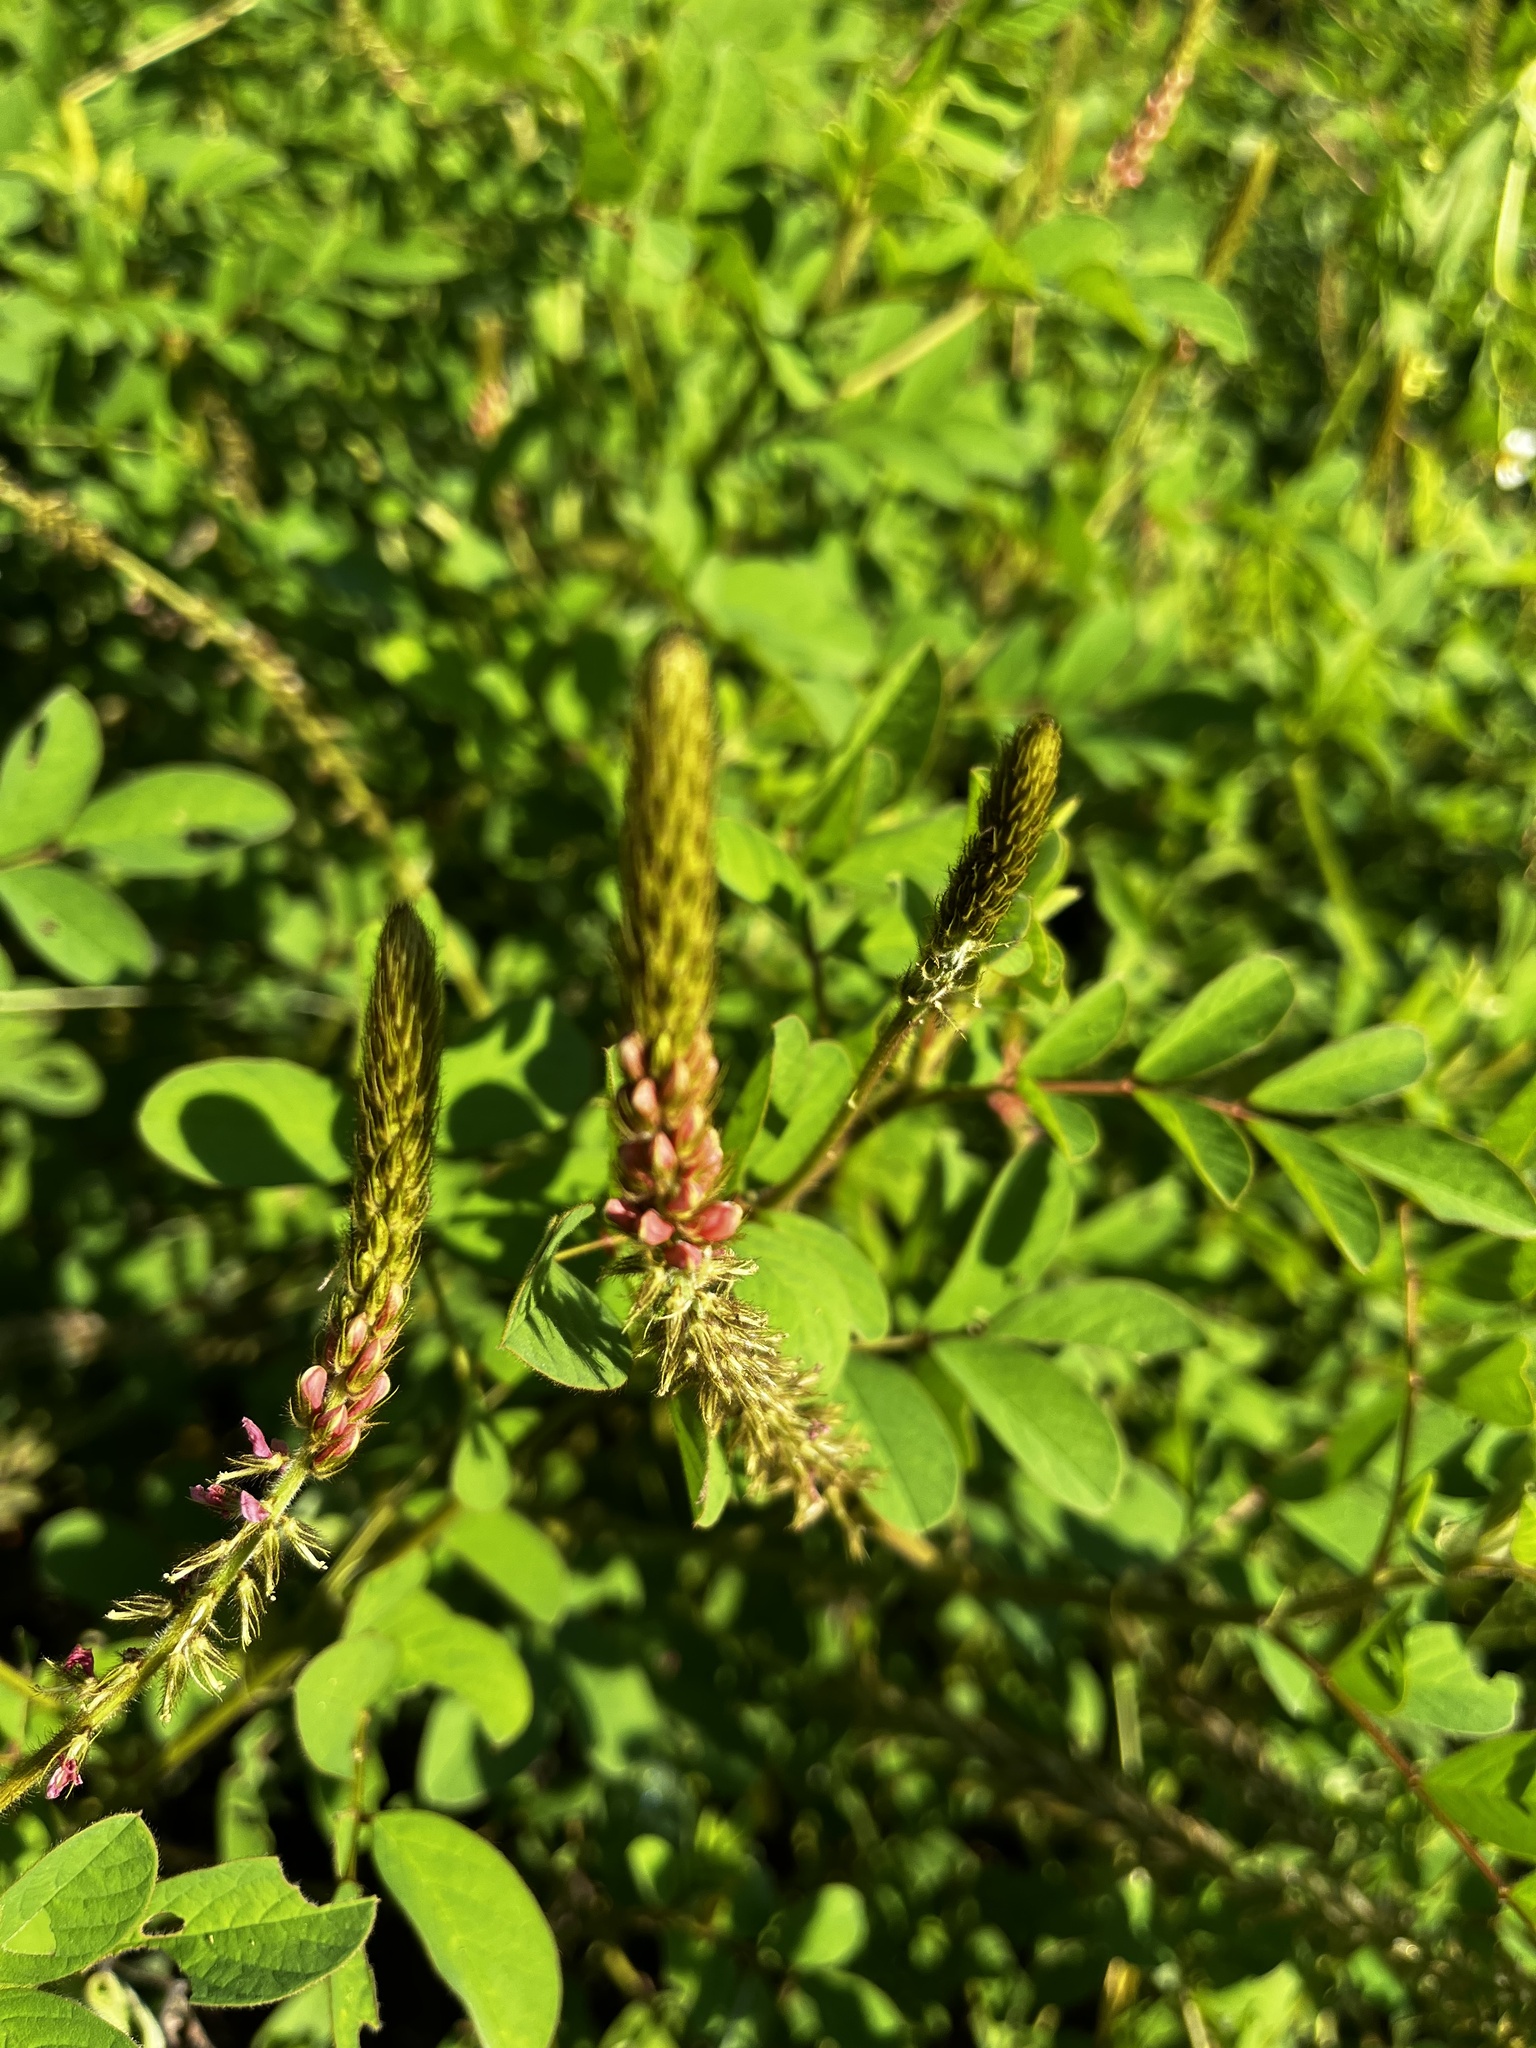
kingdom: Plantae
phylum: Tracheophyta
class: Magnoliopsida
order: Fabales
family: Fabaceae
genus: Indigofera
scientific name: Indigofera hirsuta
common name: Hairy indigo
